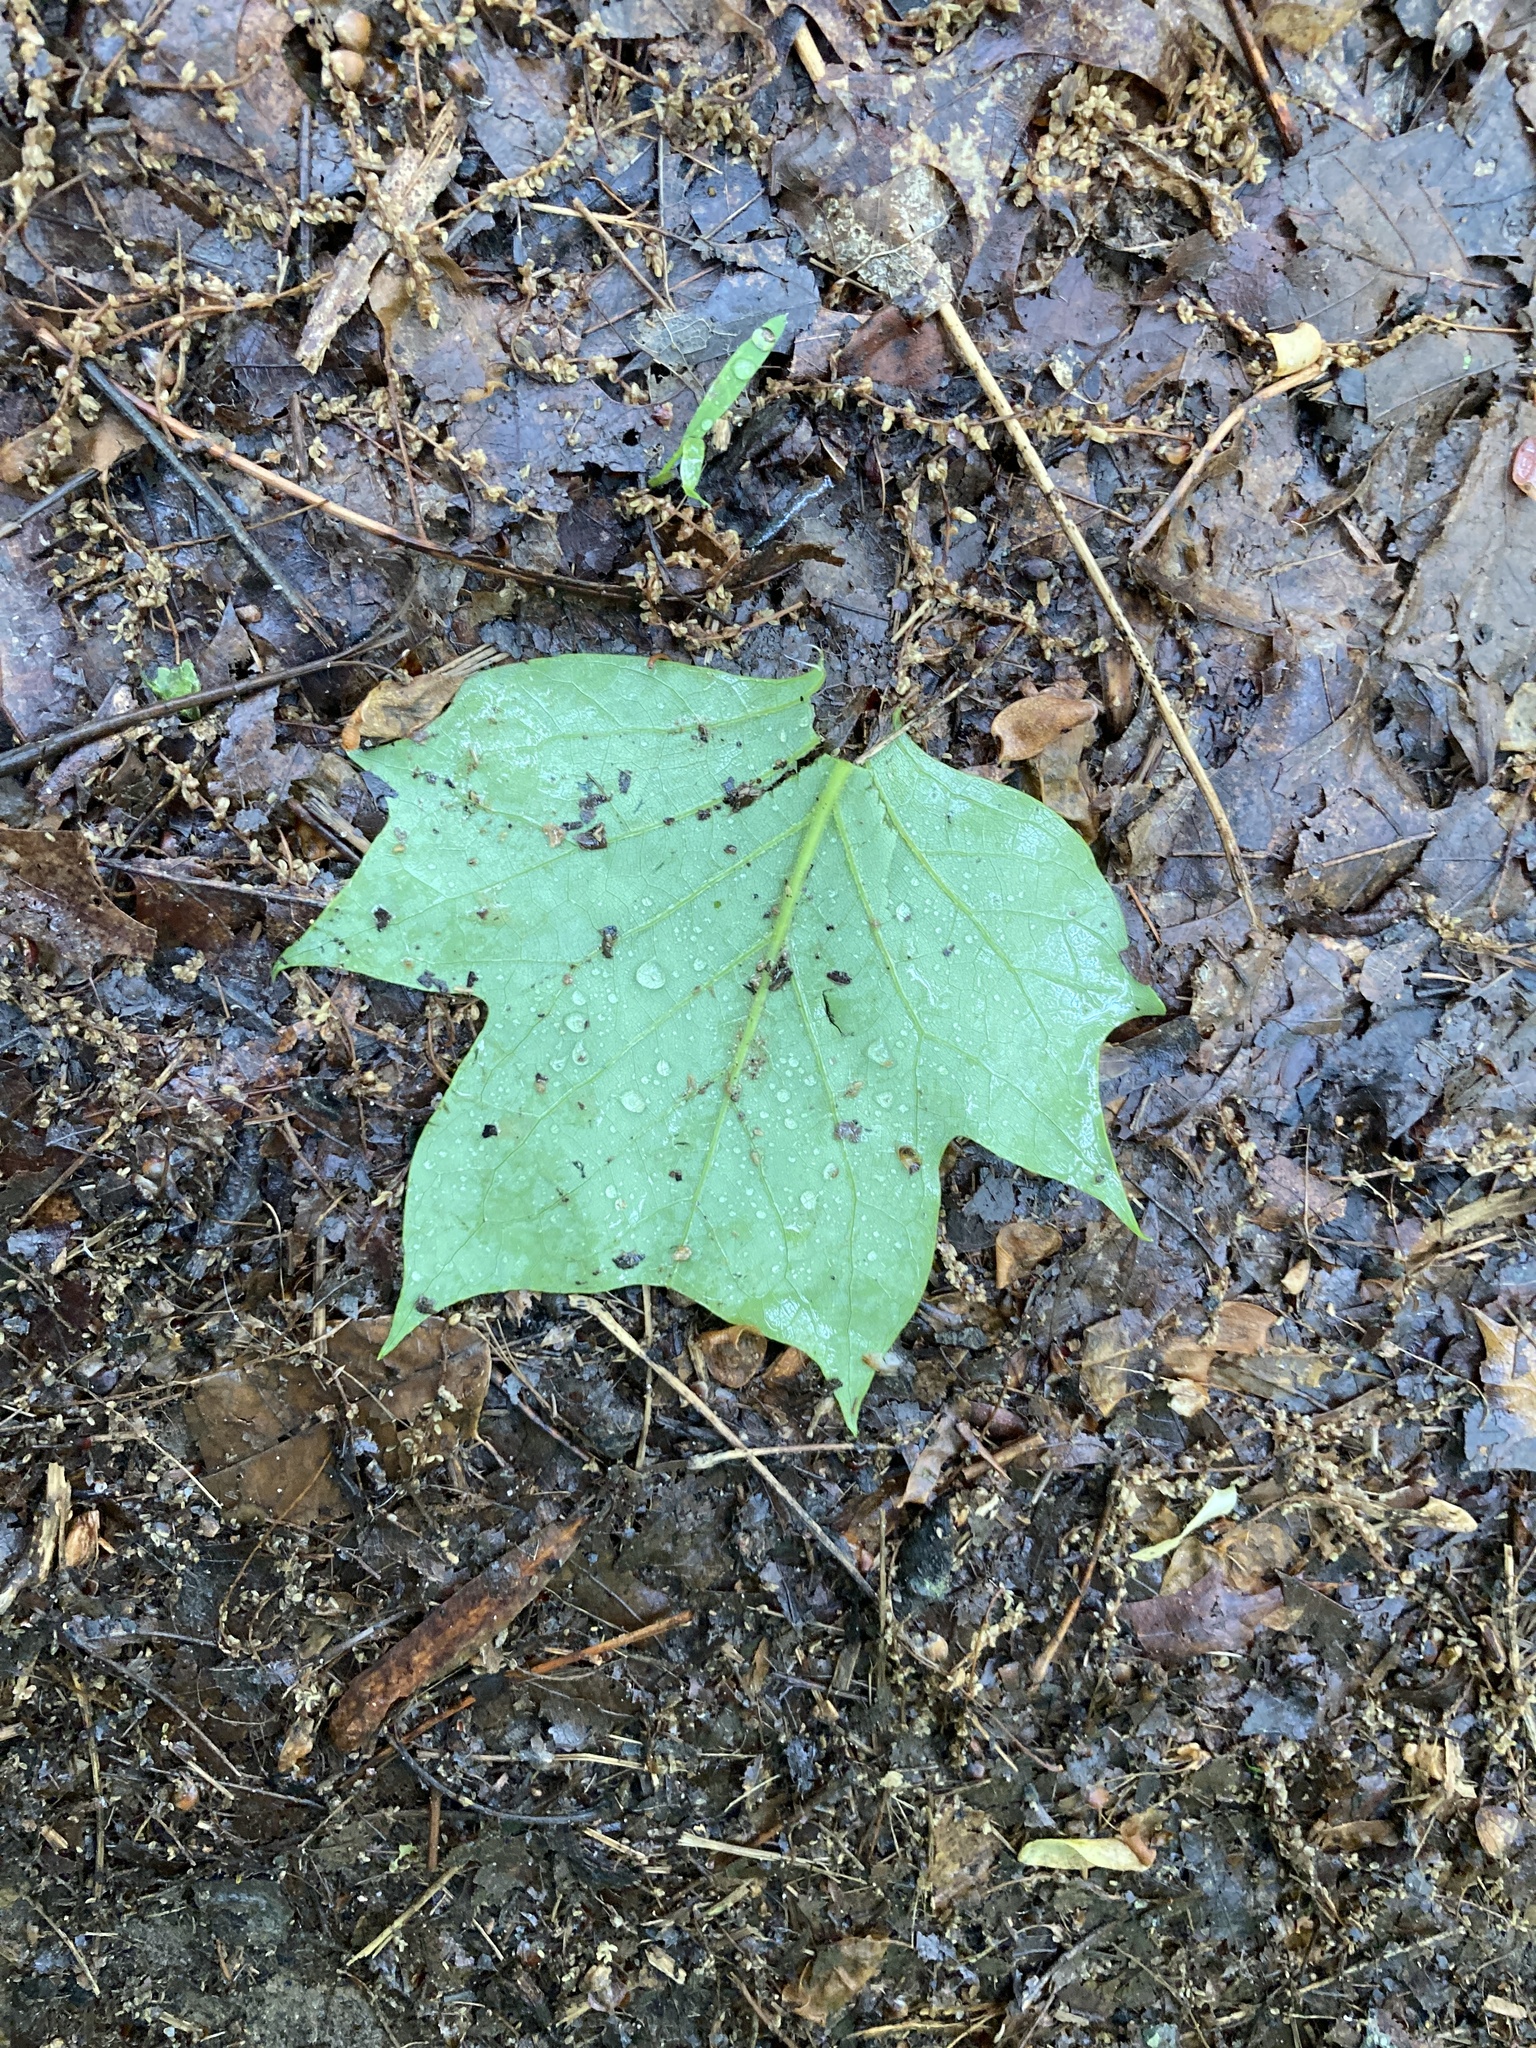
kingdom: Plantae
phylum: Tracheophyta
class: Magnoliopsida
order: Magnoliales
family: Magnoliaceae
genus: Liriodendron
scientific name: Liriodendron tulipifera
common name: Tulip tree
